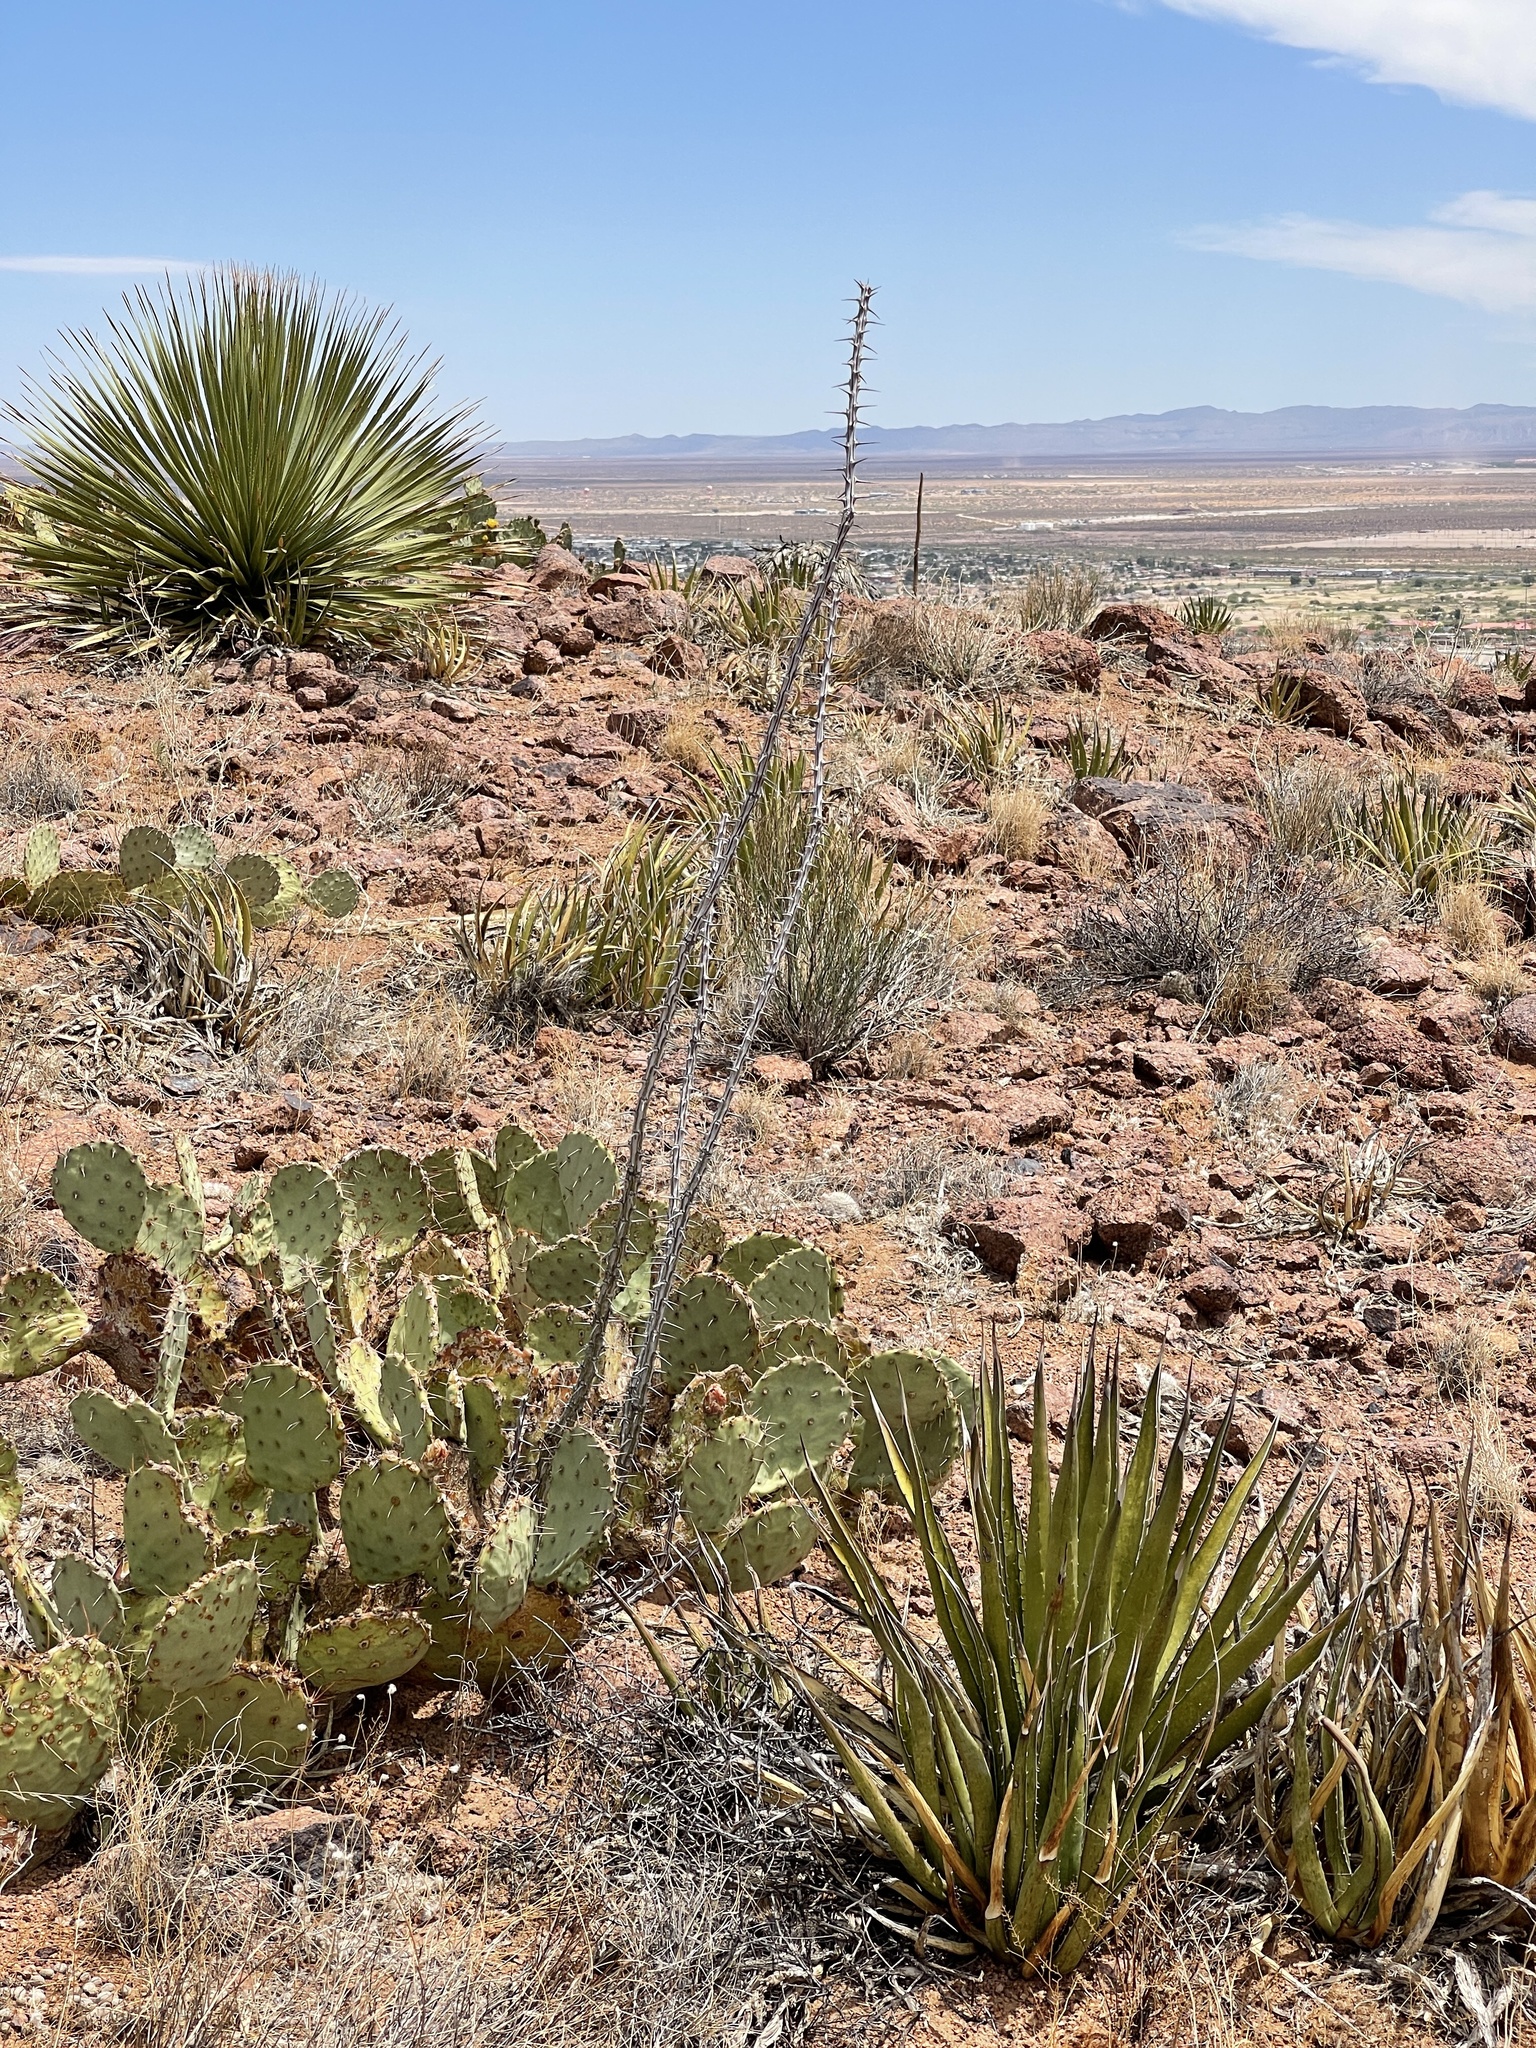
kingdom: Plantae
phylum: Tracheophyta
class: Magnoliopsida
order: Ericales
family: Fouquieriaceae
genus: Fouquieria
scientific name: Fouquieria splendens
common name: Vine-cactus
